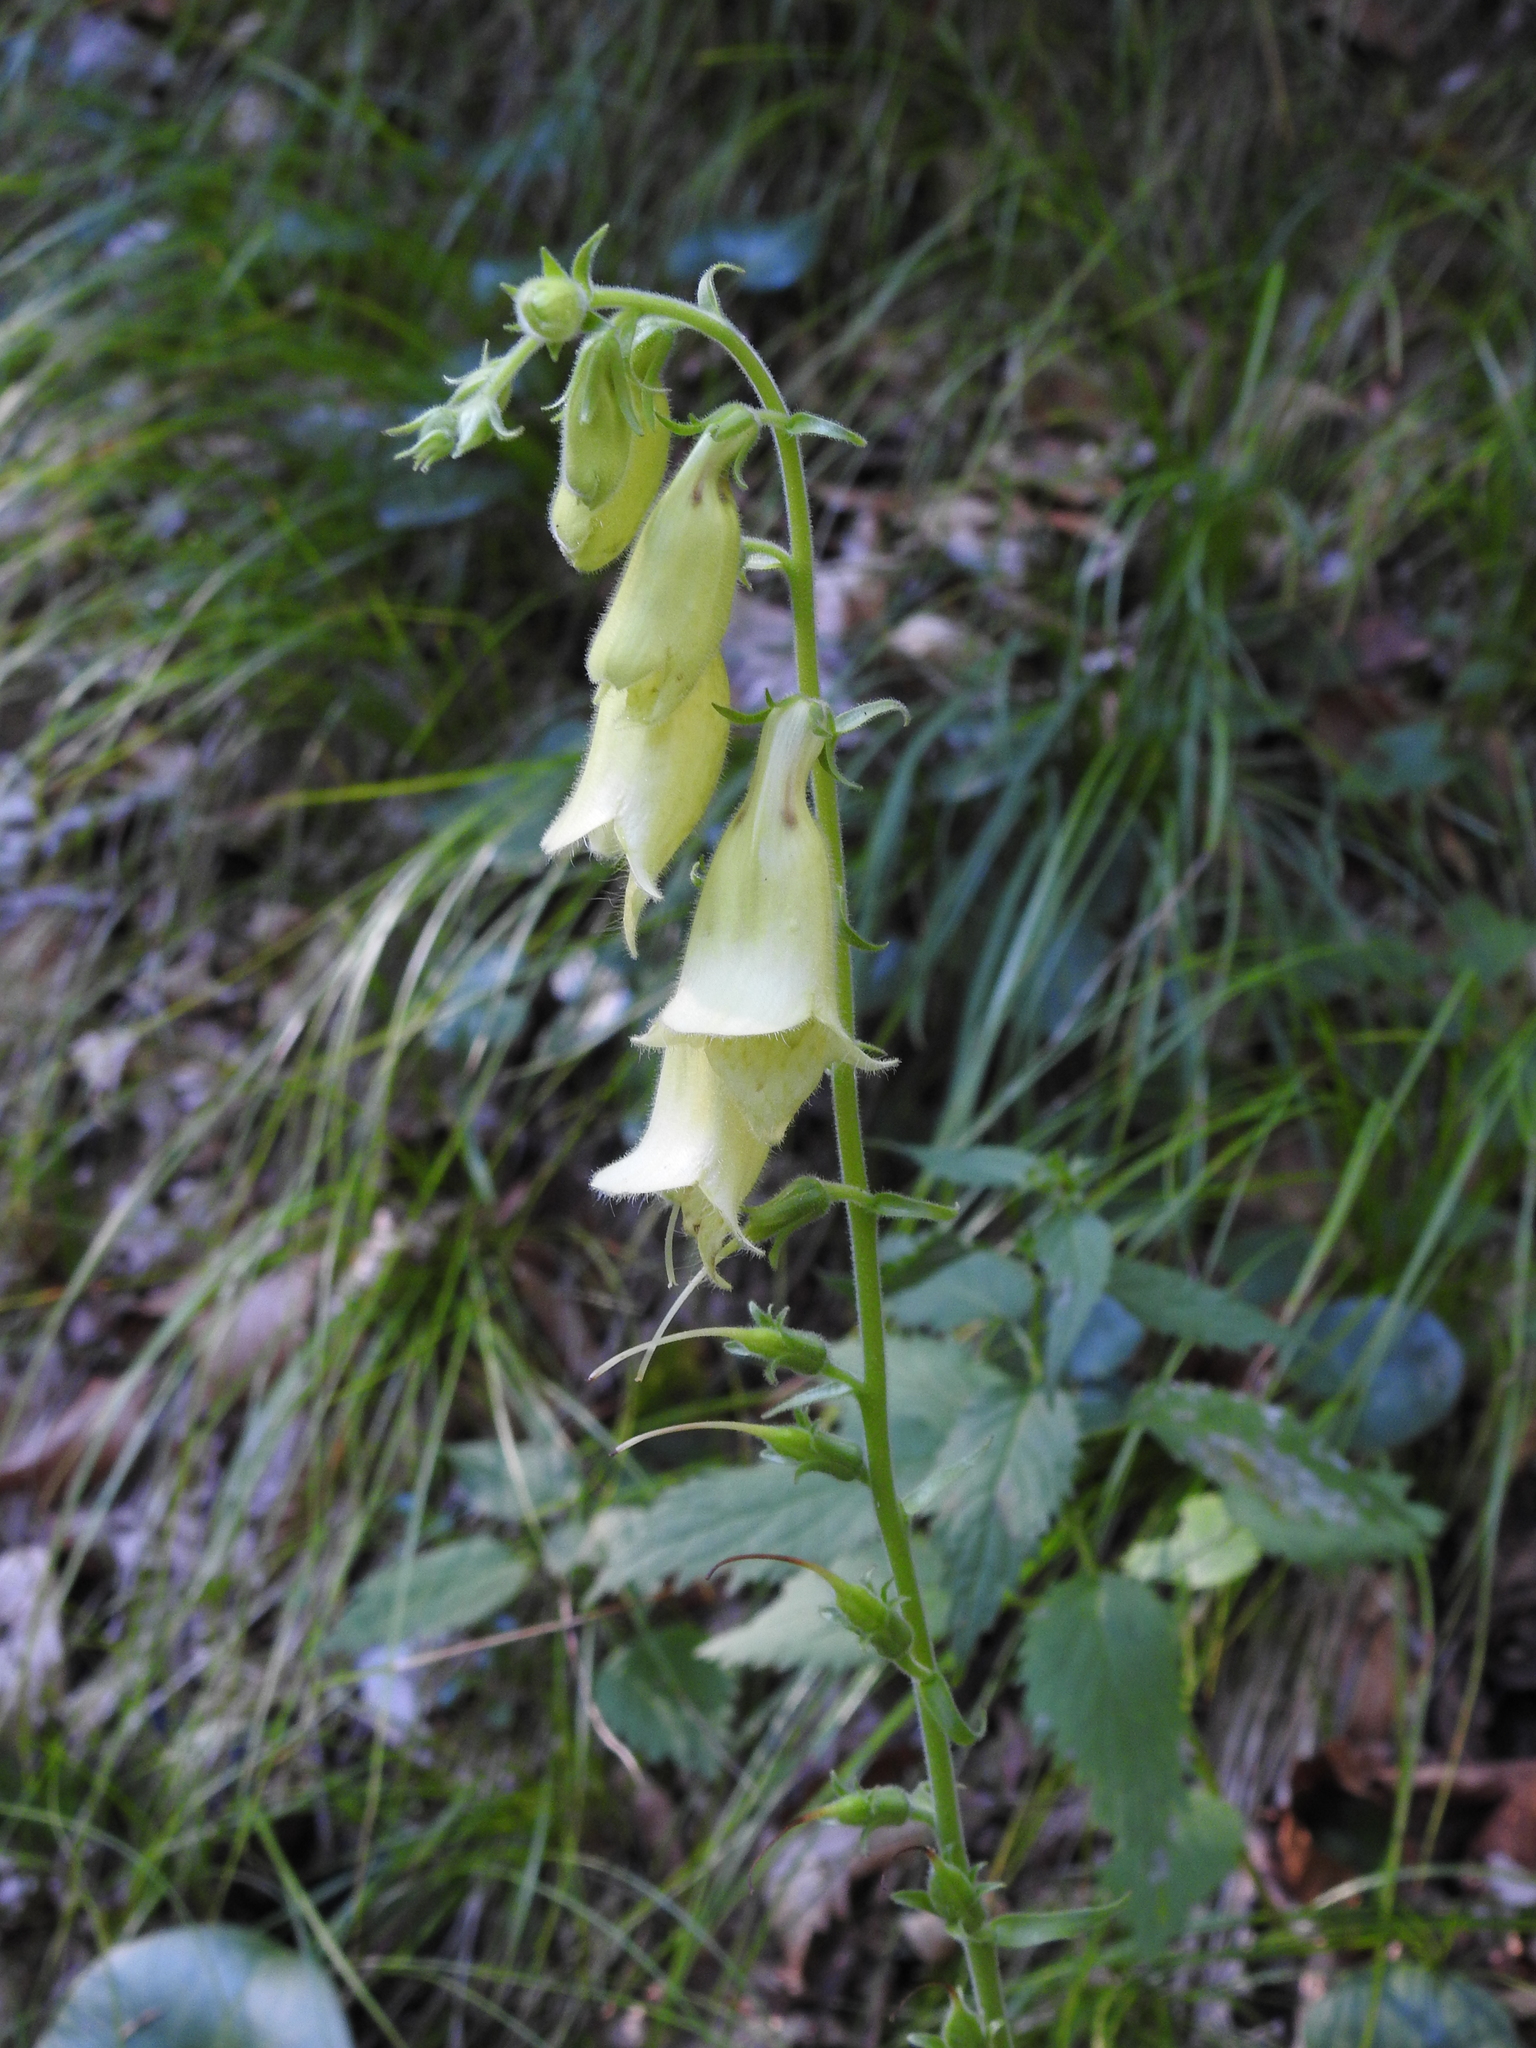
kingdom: Plantae
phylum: Tracheophyta
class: Magnoliopsida
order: Lamiales
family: Plantaginaceae
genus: Digitalis
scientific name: Digitalis grandiflora
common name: Yellow foxglove
